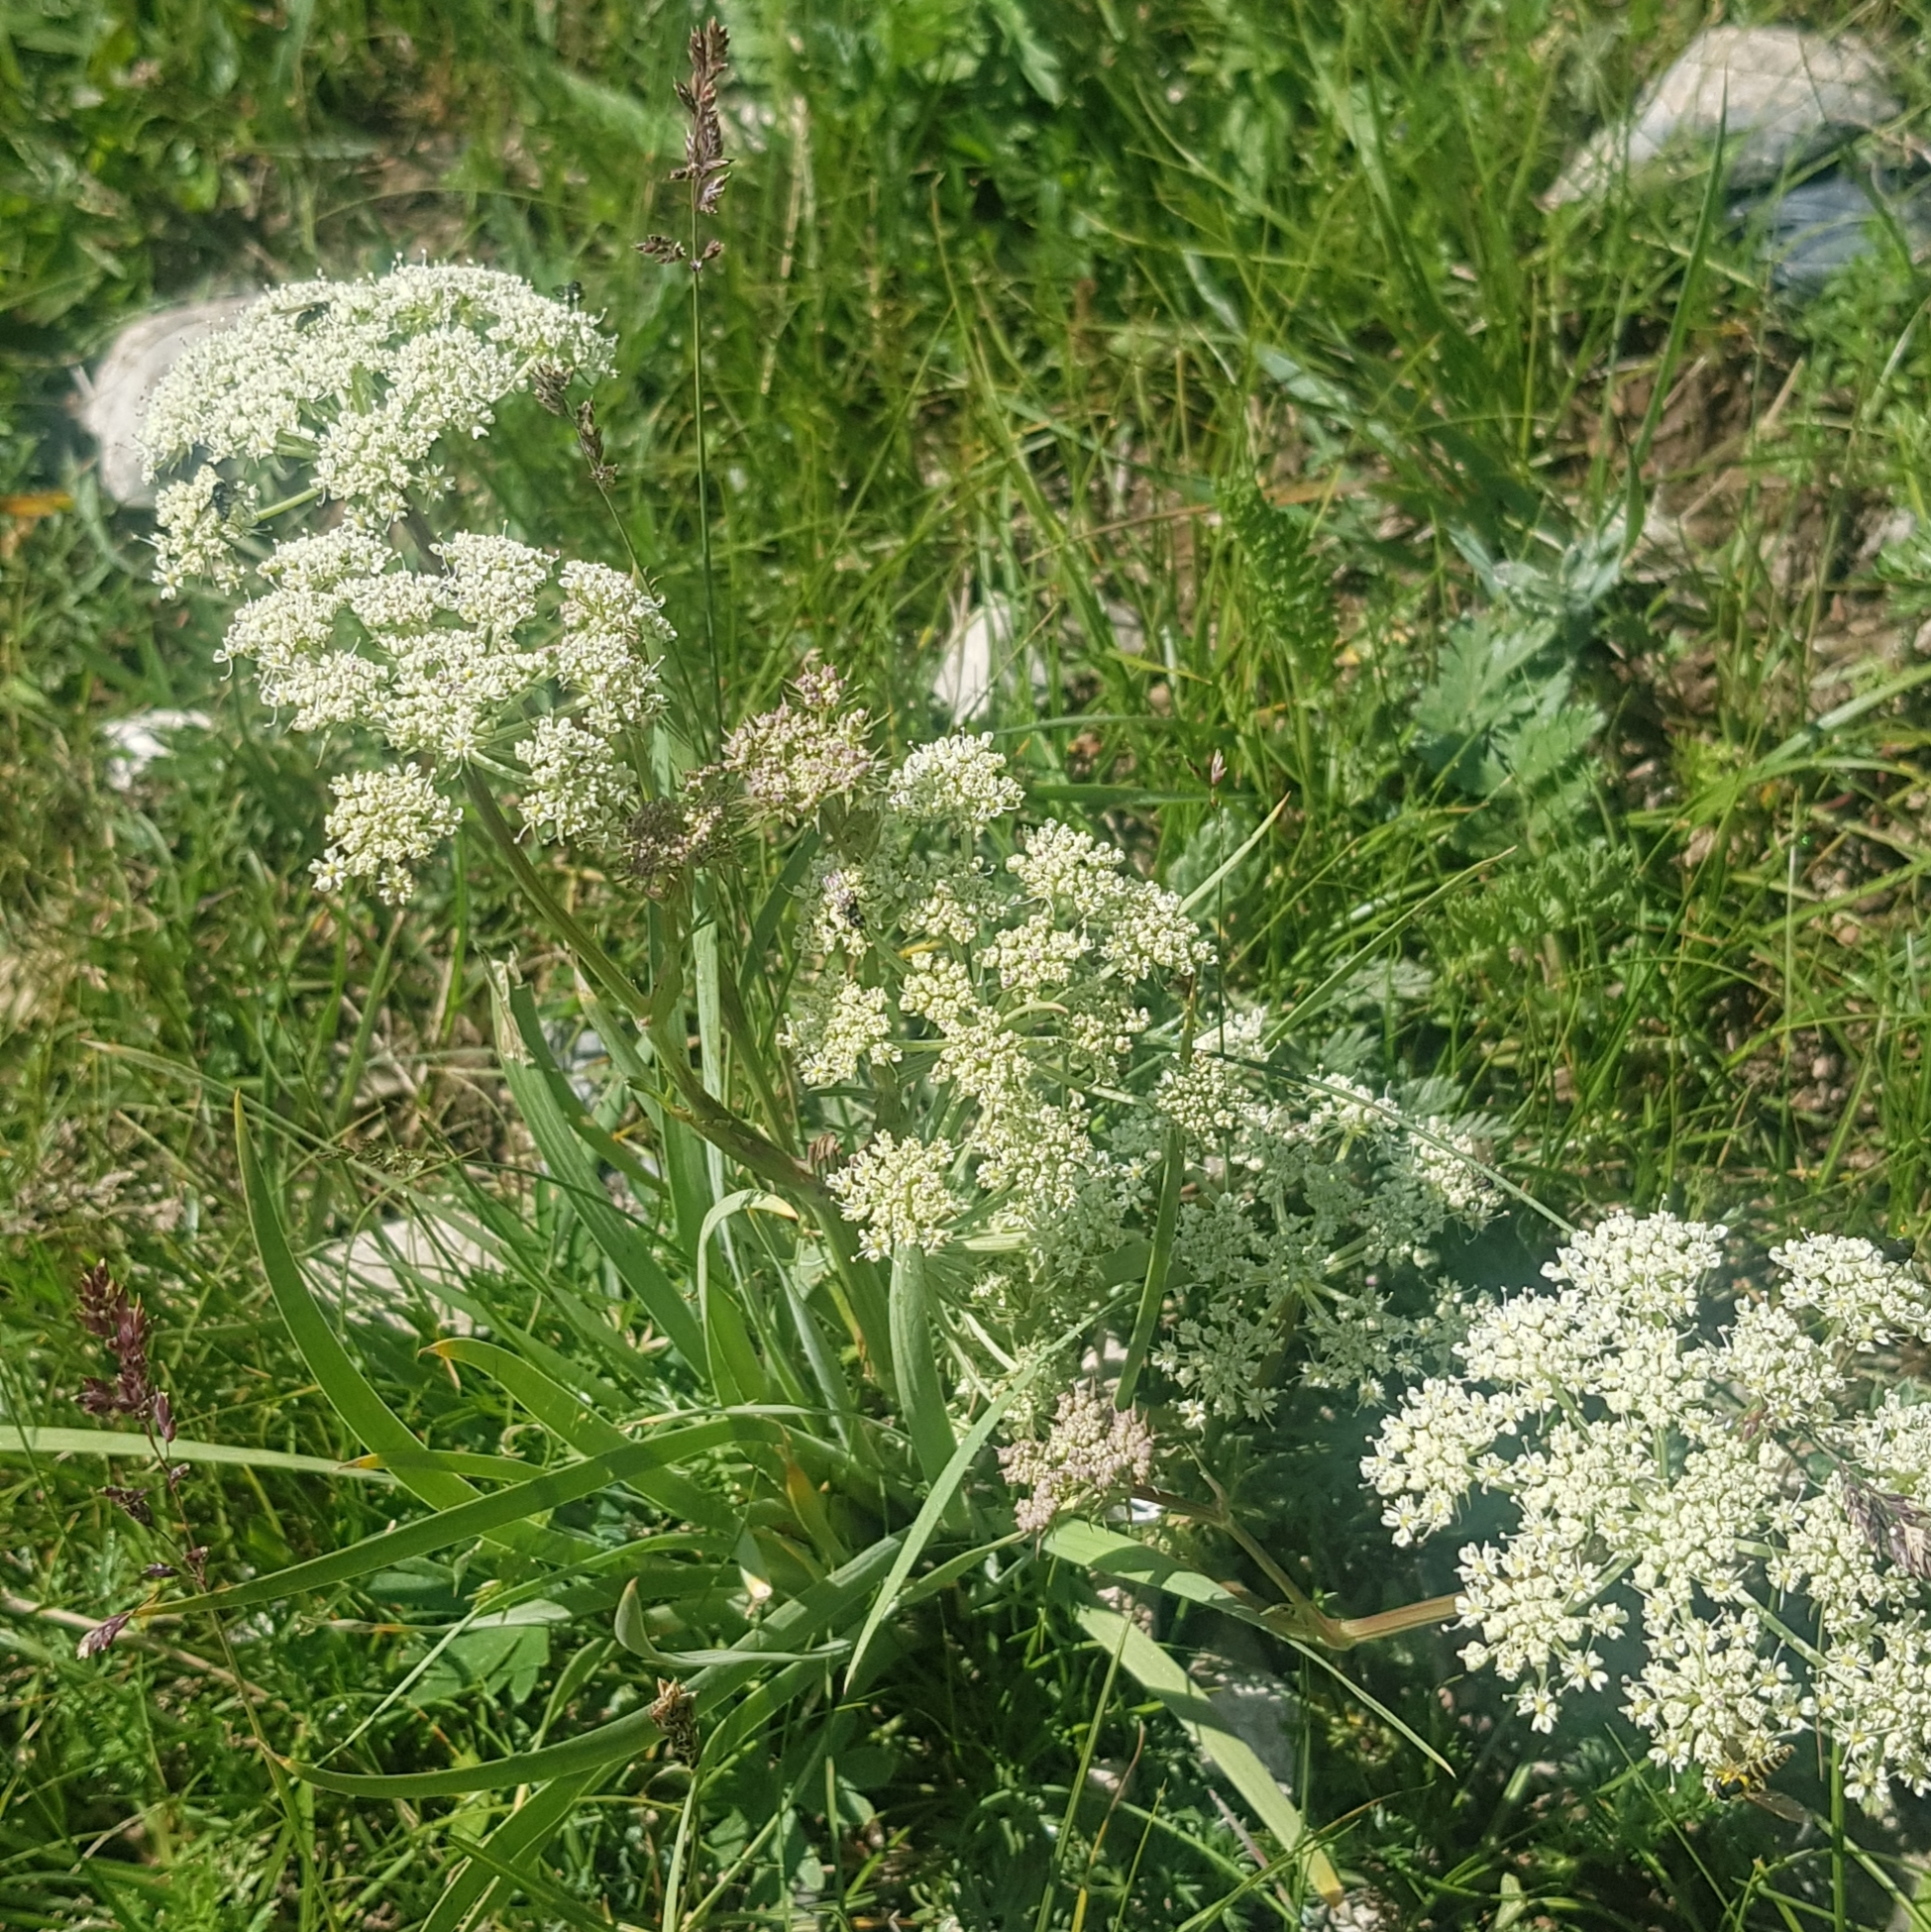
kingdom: Plantae
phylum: Tracheophyta
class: Magnoliopsida
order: Apiales
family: Apiaceae
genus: Kitagawia
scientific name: Kitagawia baicalensis
